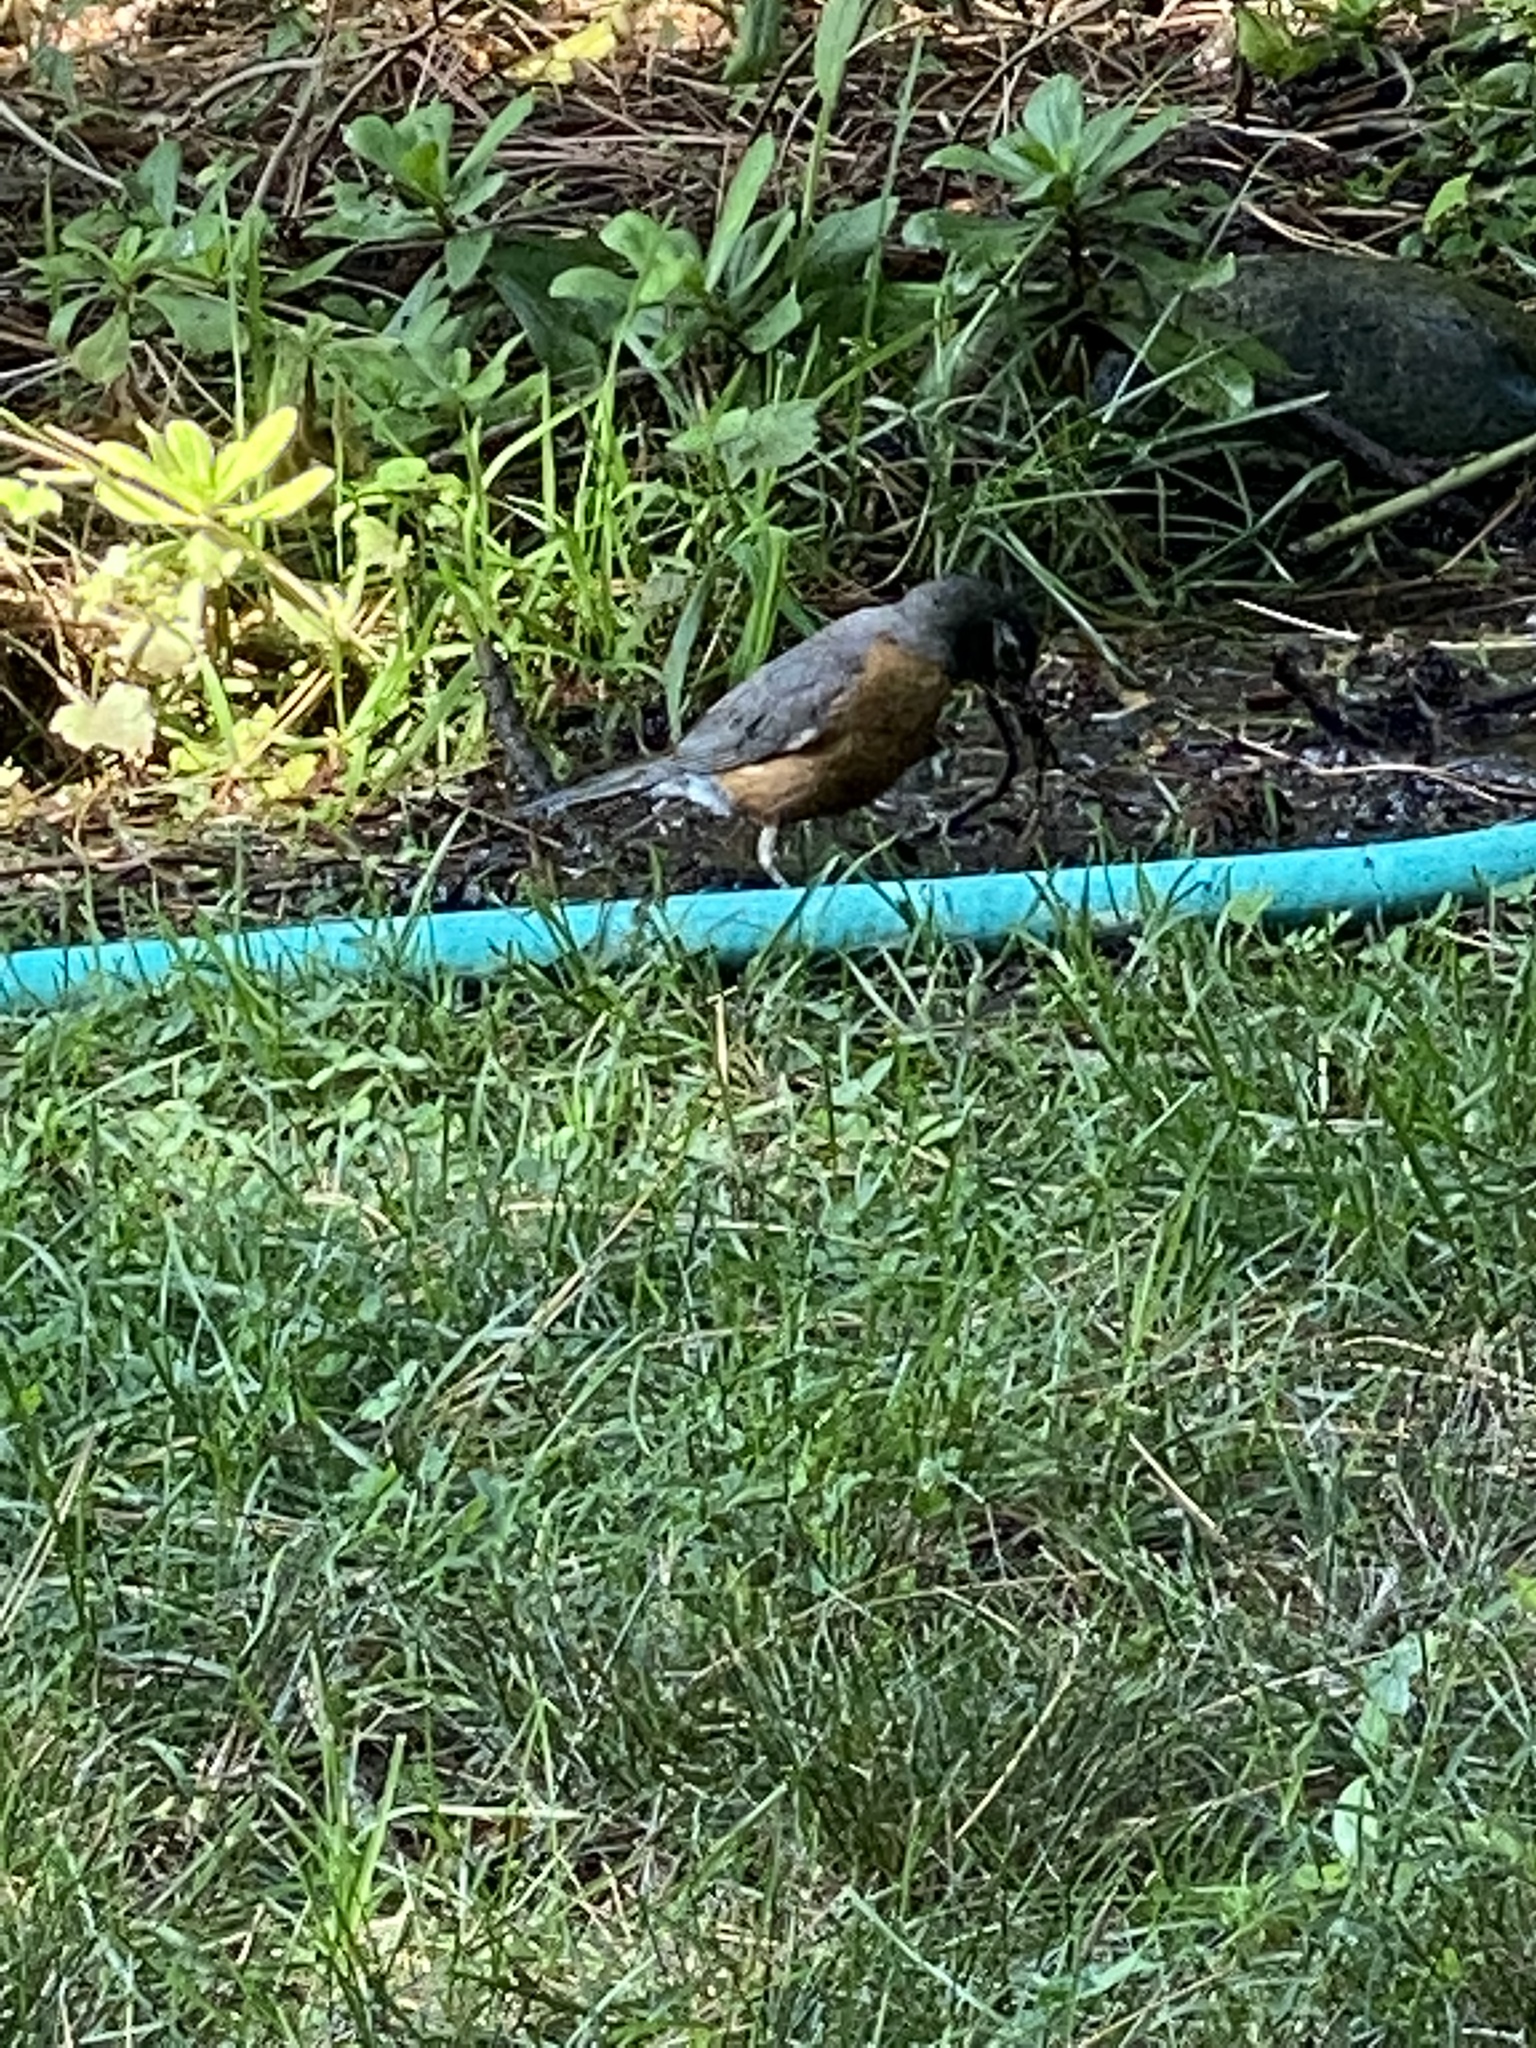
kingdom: Animalia
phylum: Chordata
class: Aves
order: Passeriformes
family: Turdidae
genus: Turdus
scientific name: Turdus migratorius
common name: American robin
